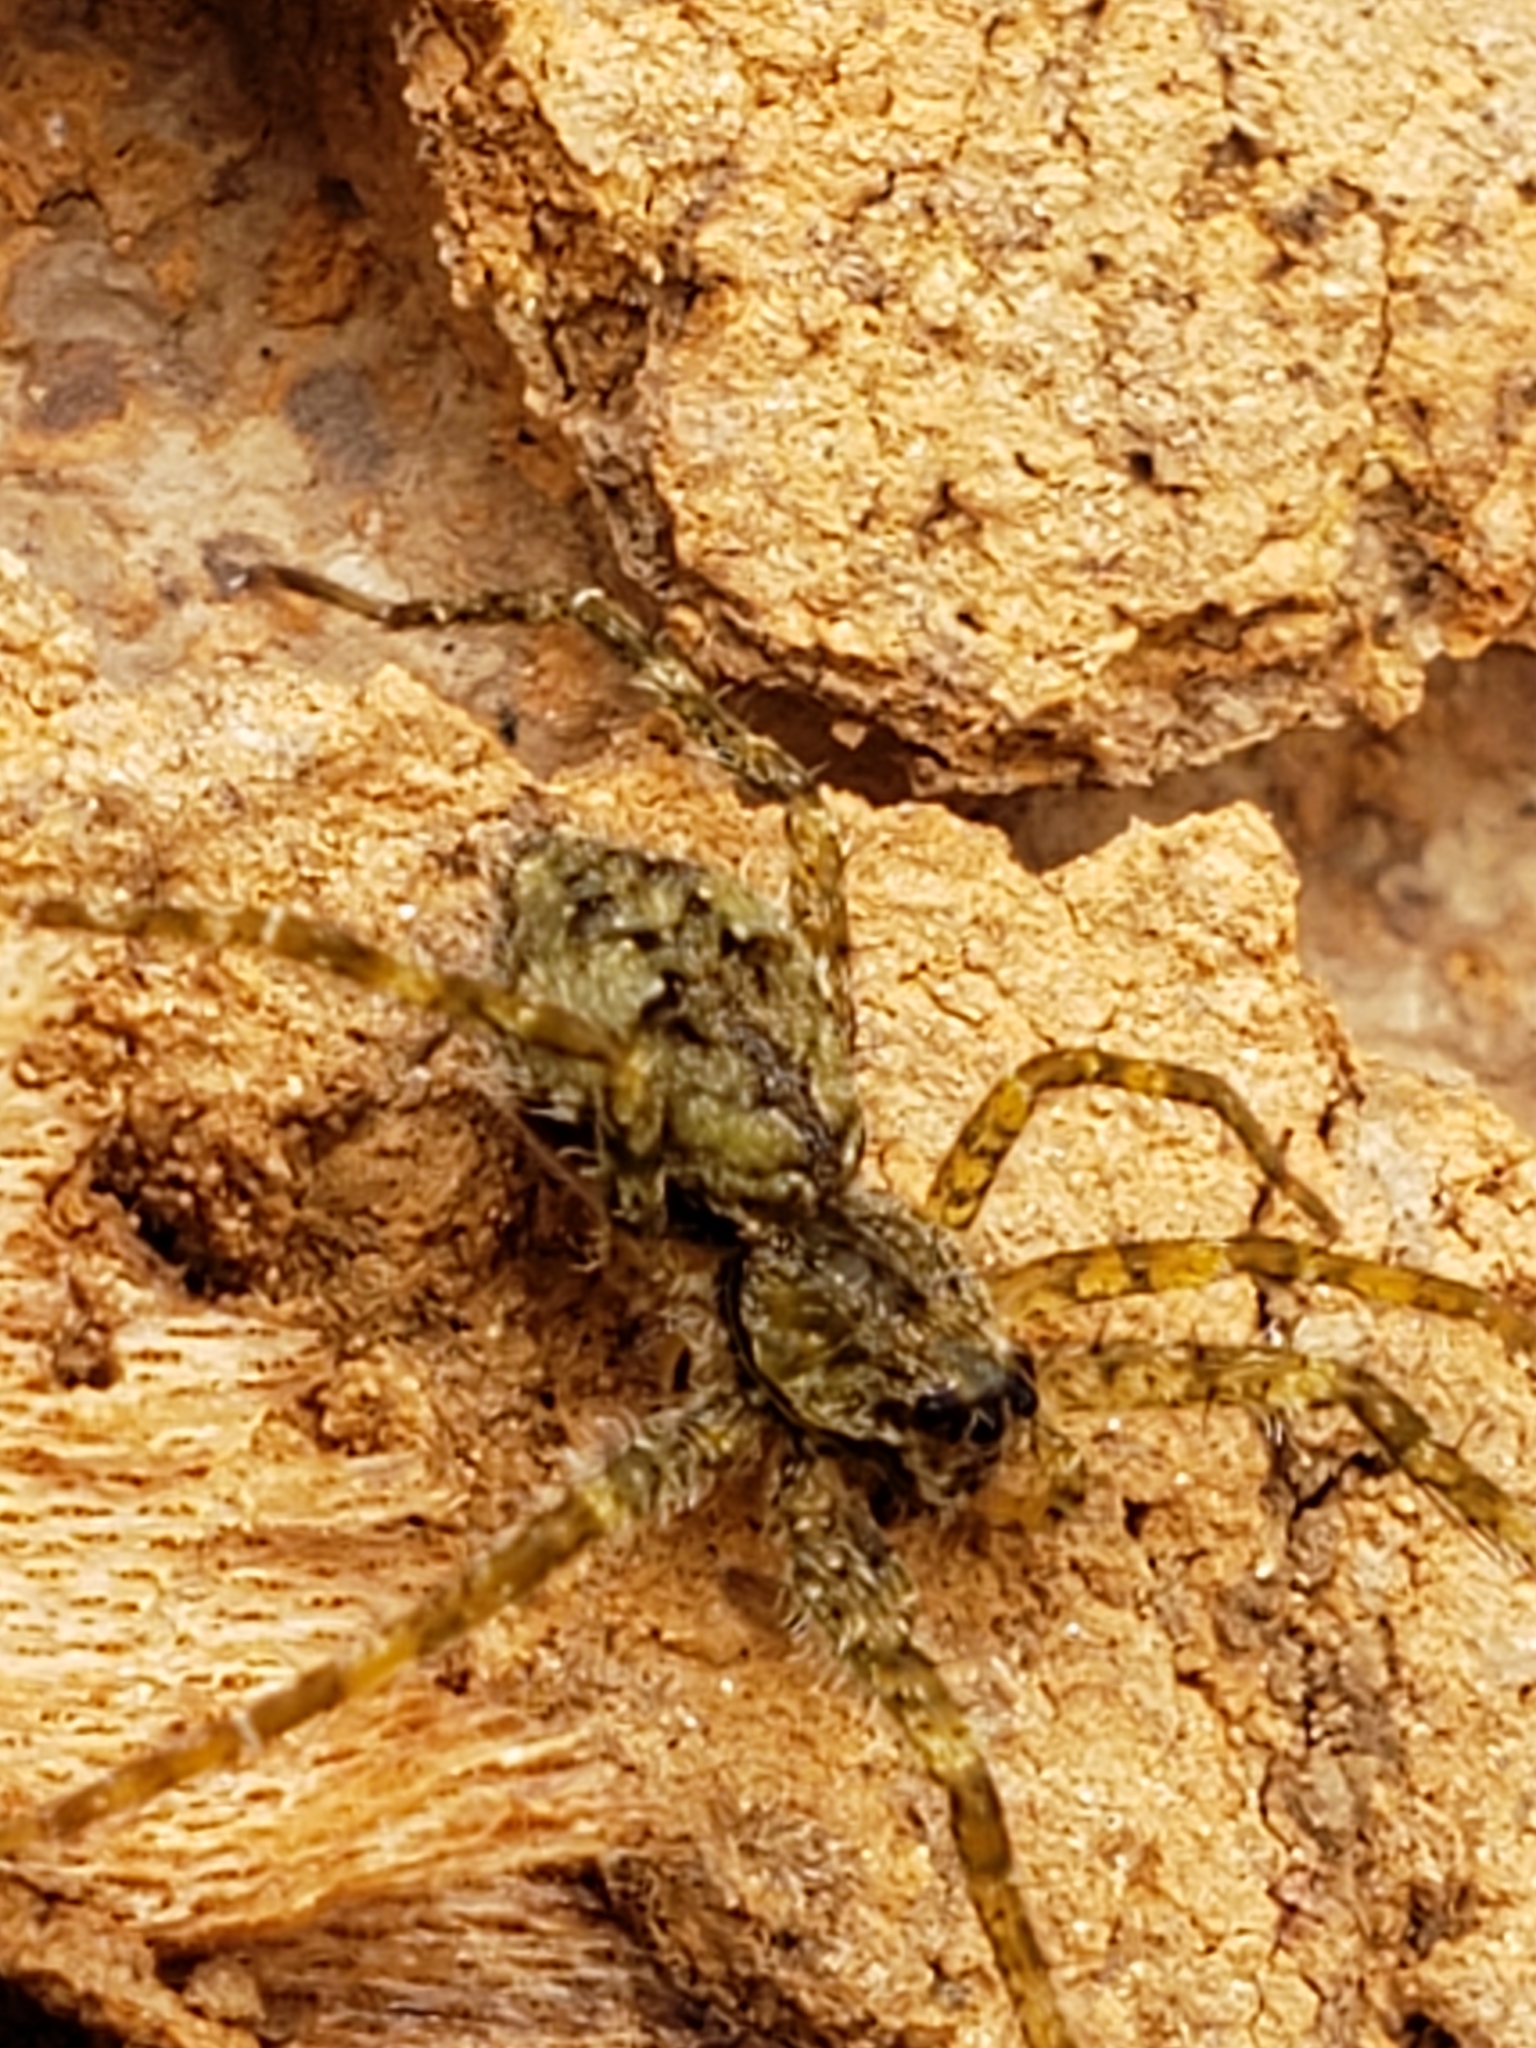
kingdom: Animalia
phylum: Arthropoda
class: Arachnida
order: Araneae
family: Pisauridae
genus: Dolomedes
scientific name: Dolomedes albineus
